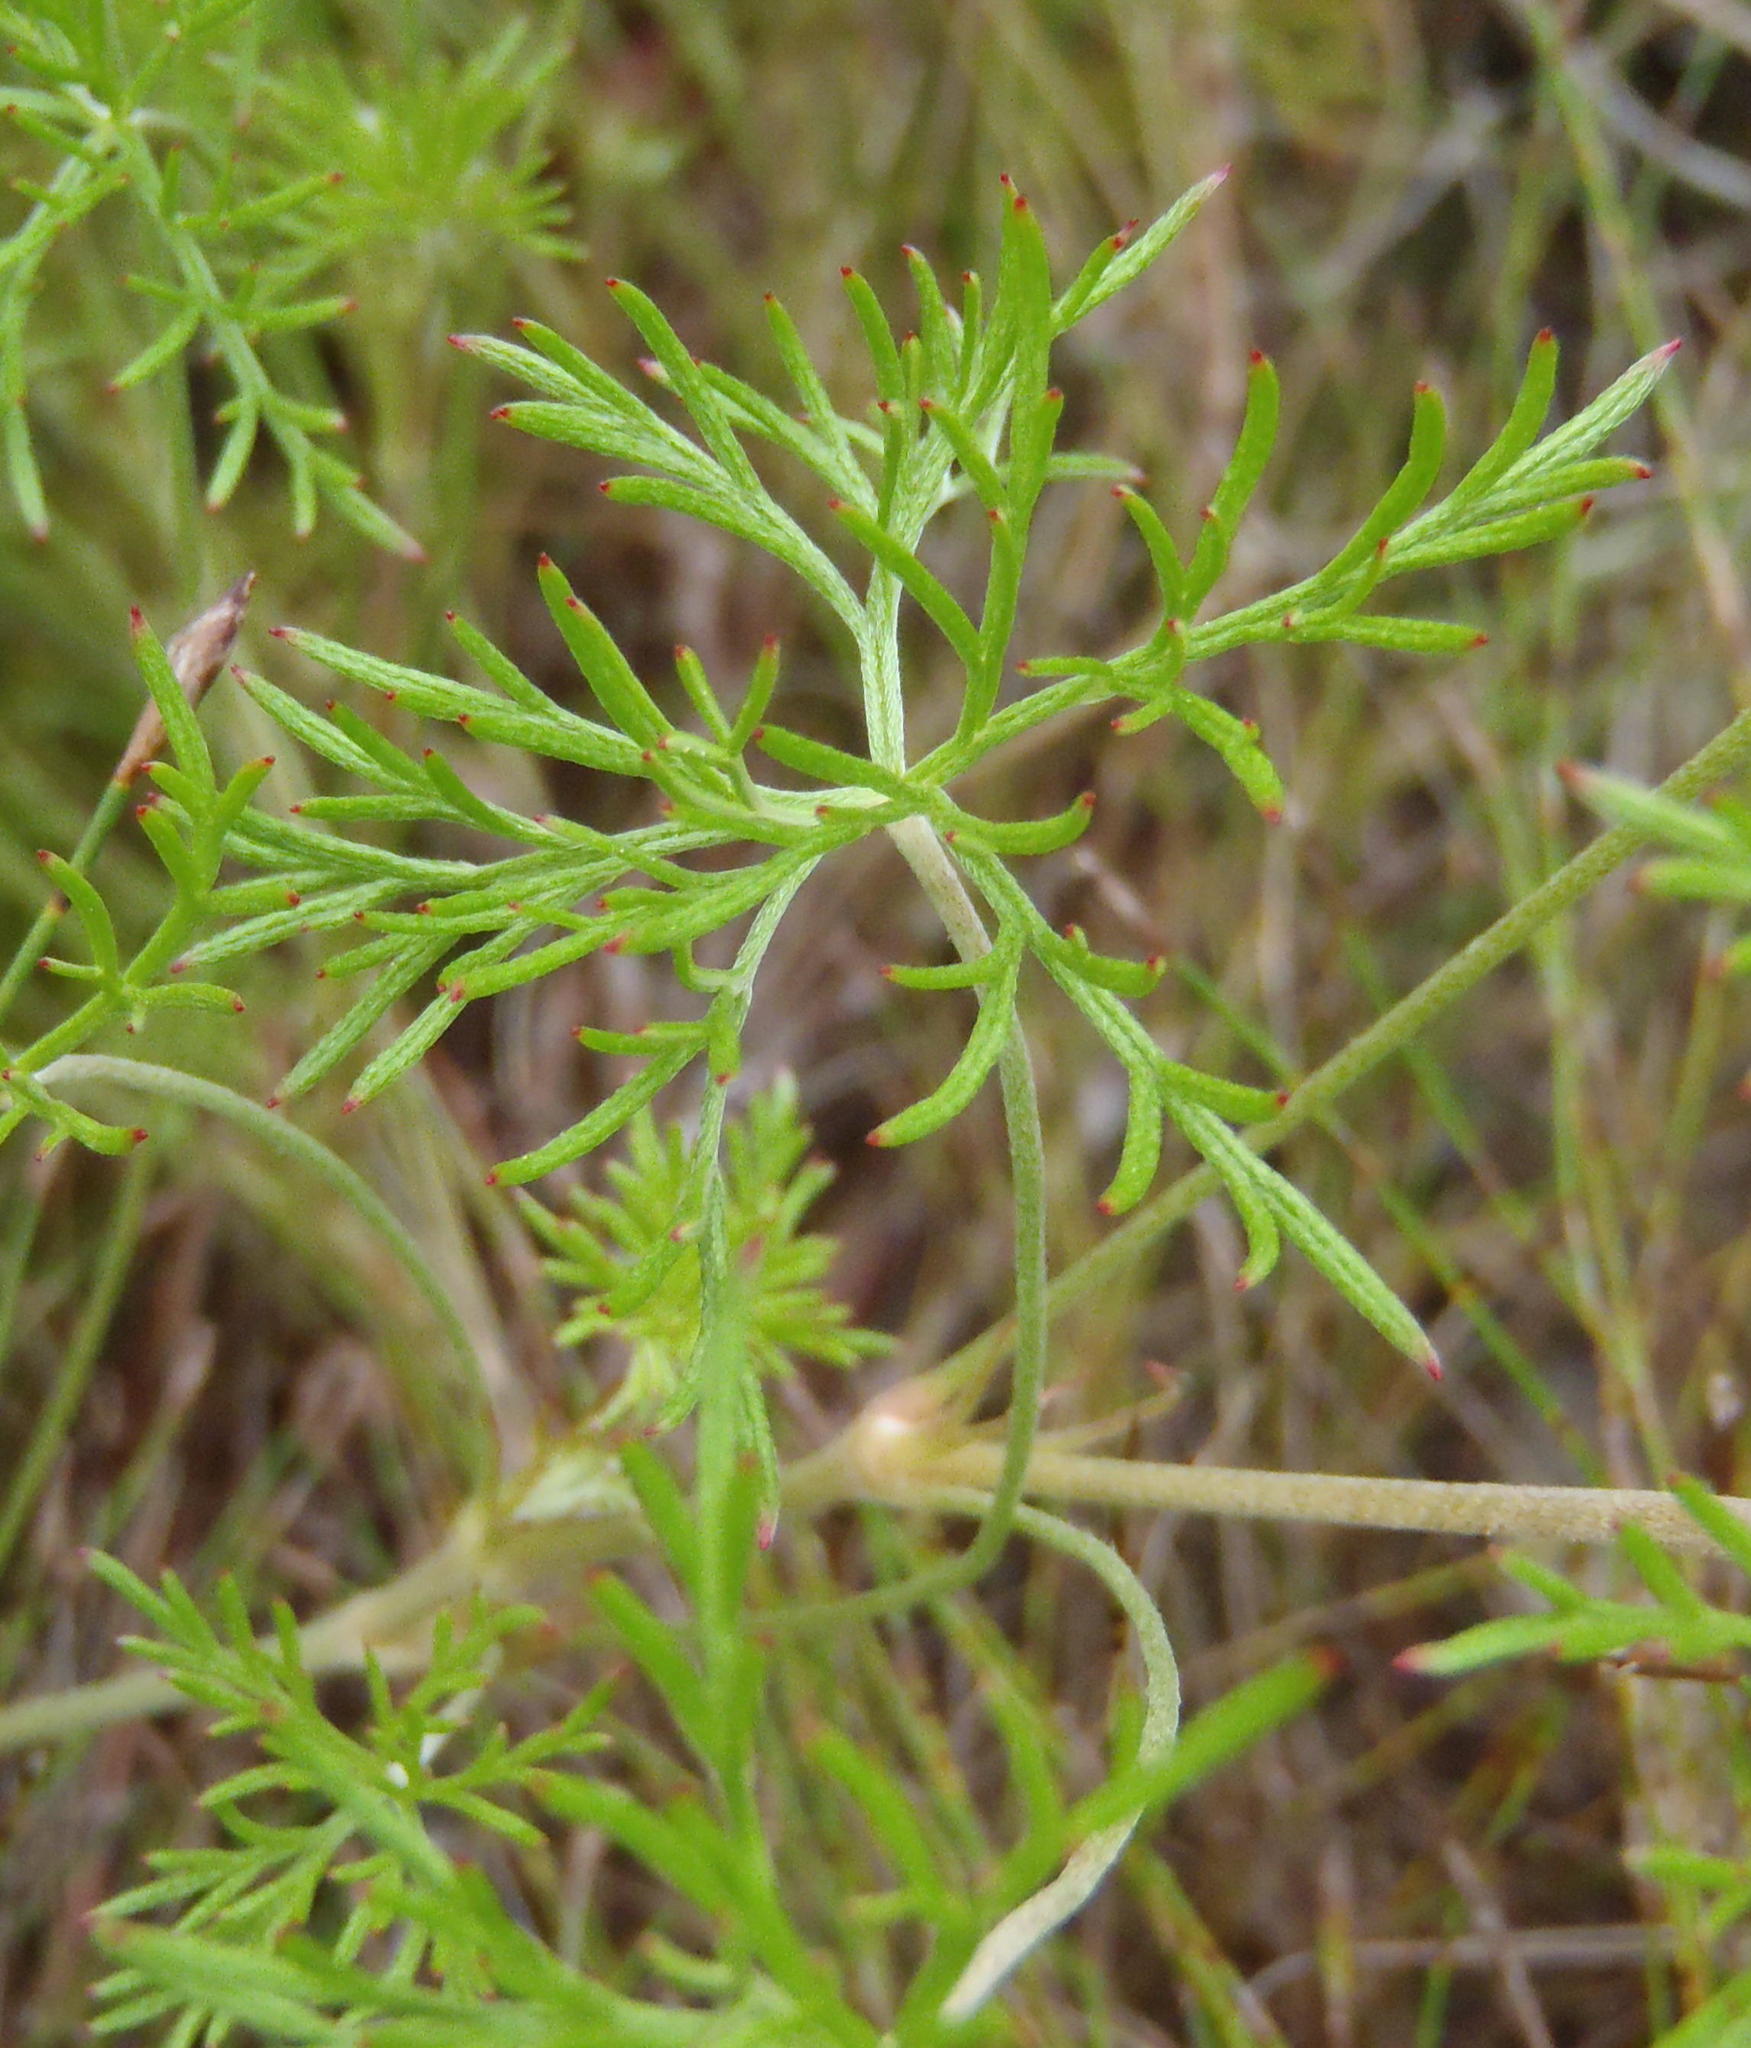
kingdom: Plantae
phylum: Tracheophyta
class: Magnoliopsida
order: Geraniales
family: Geraniaceae
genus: Geranium
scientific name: Geranium incanum
